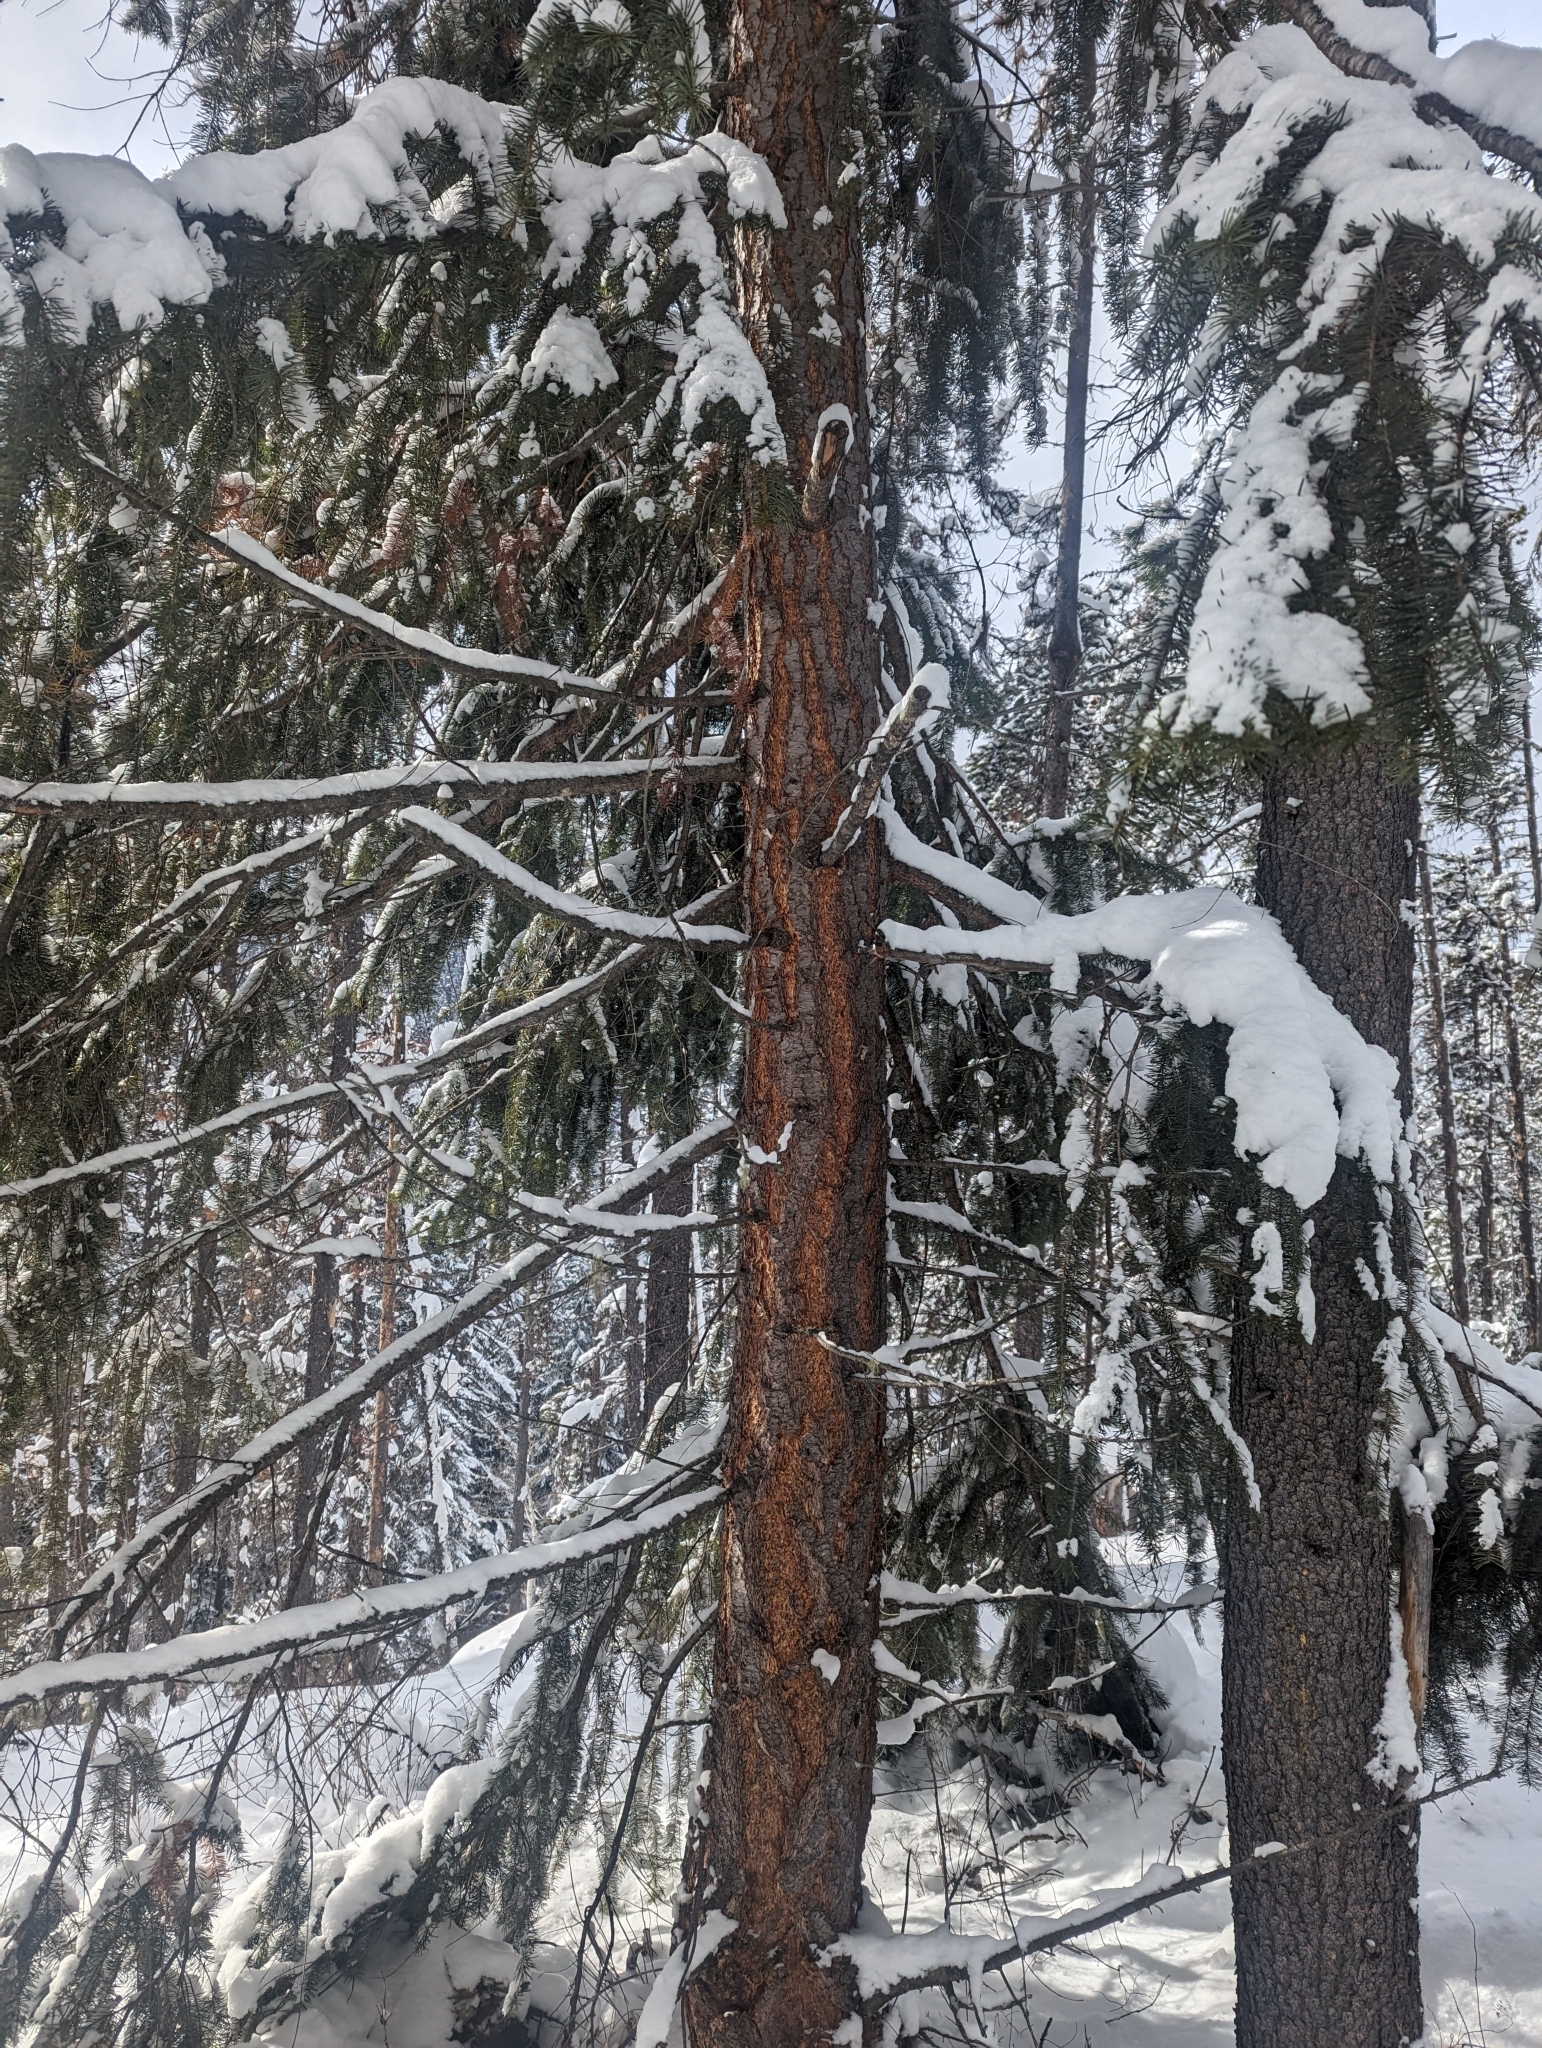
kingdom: Plantae
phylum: Tracheophyta
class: Pinopsida
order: Pinales
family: Pinaceae
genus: Pseudotsuga
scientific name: Pseudotsuga menziesii
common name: Douglas fir
